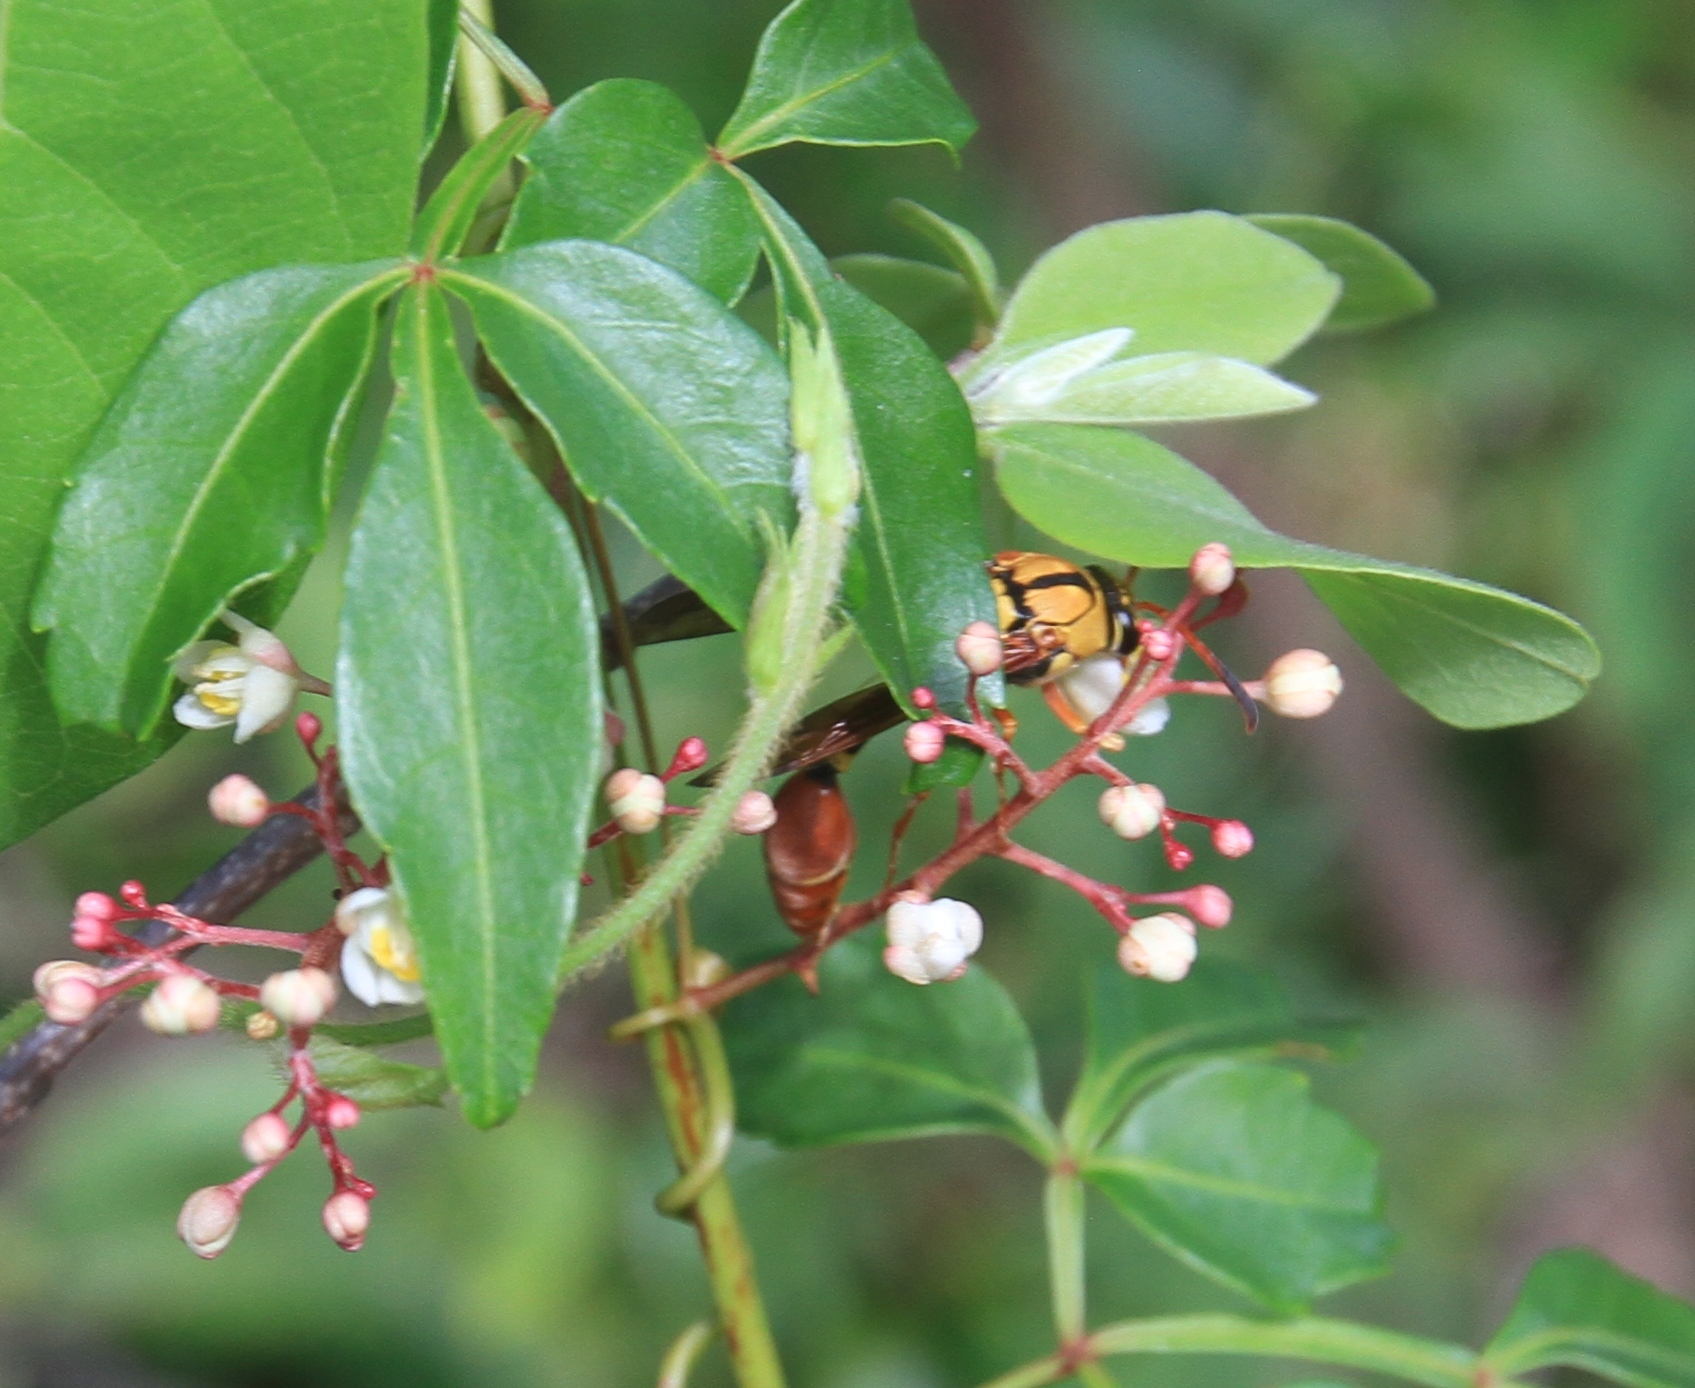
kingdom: Animalia
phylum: Arthropoda
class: Insecta
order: Hymenoptera
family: Eumenidae
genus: Zeta
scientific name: Zeta abdominale
